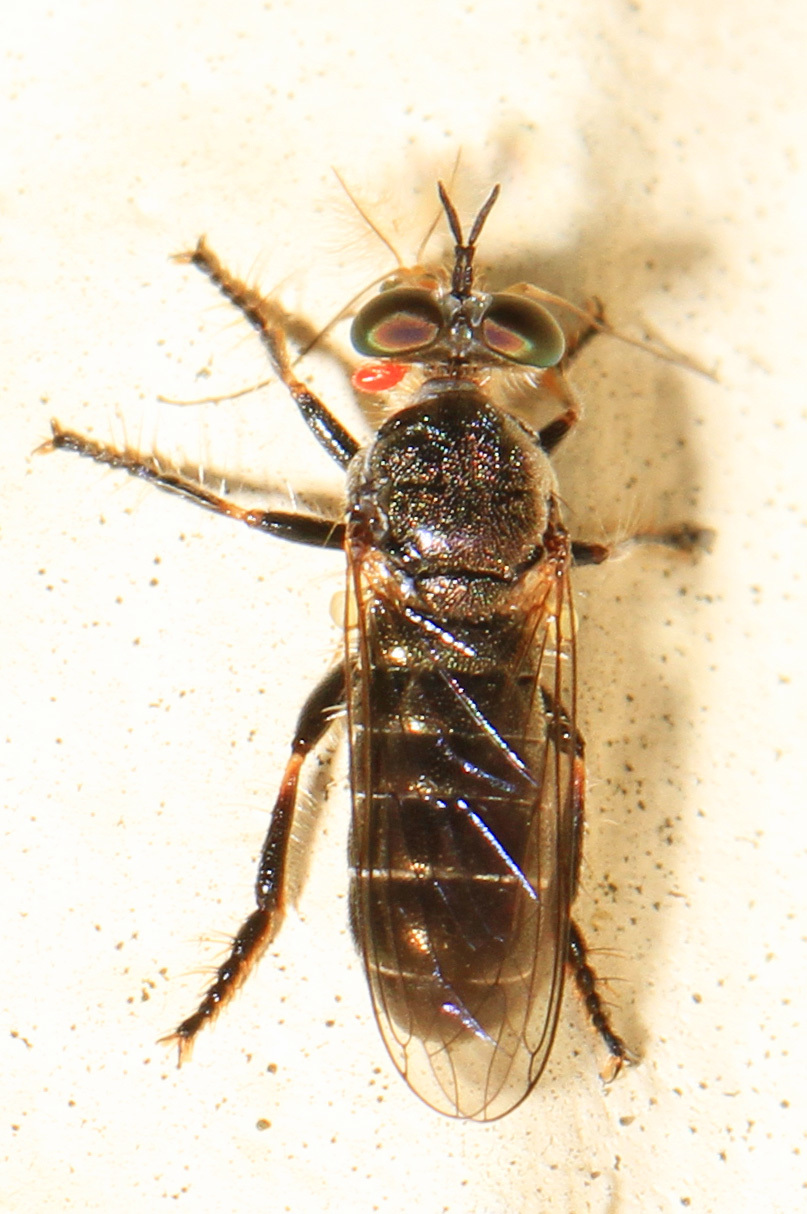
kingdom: Animalia
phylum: Arthropoda
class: Insecta
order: Diptera
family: Asilidae
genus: Atomosia
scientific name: Atomosia puella
